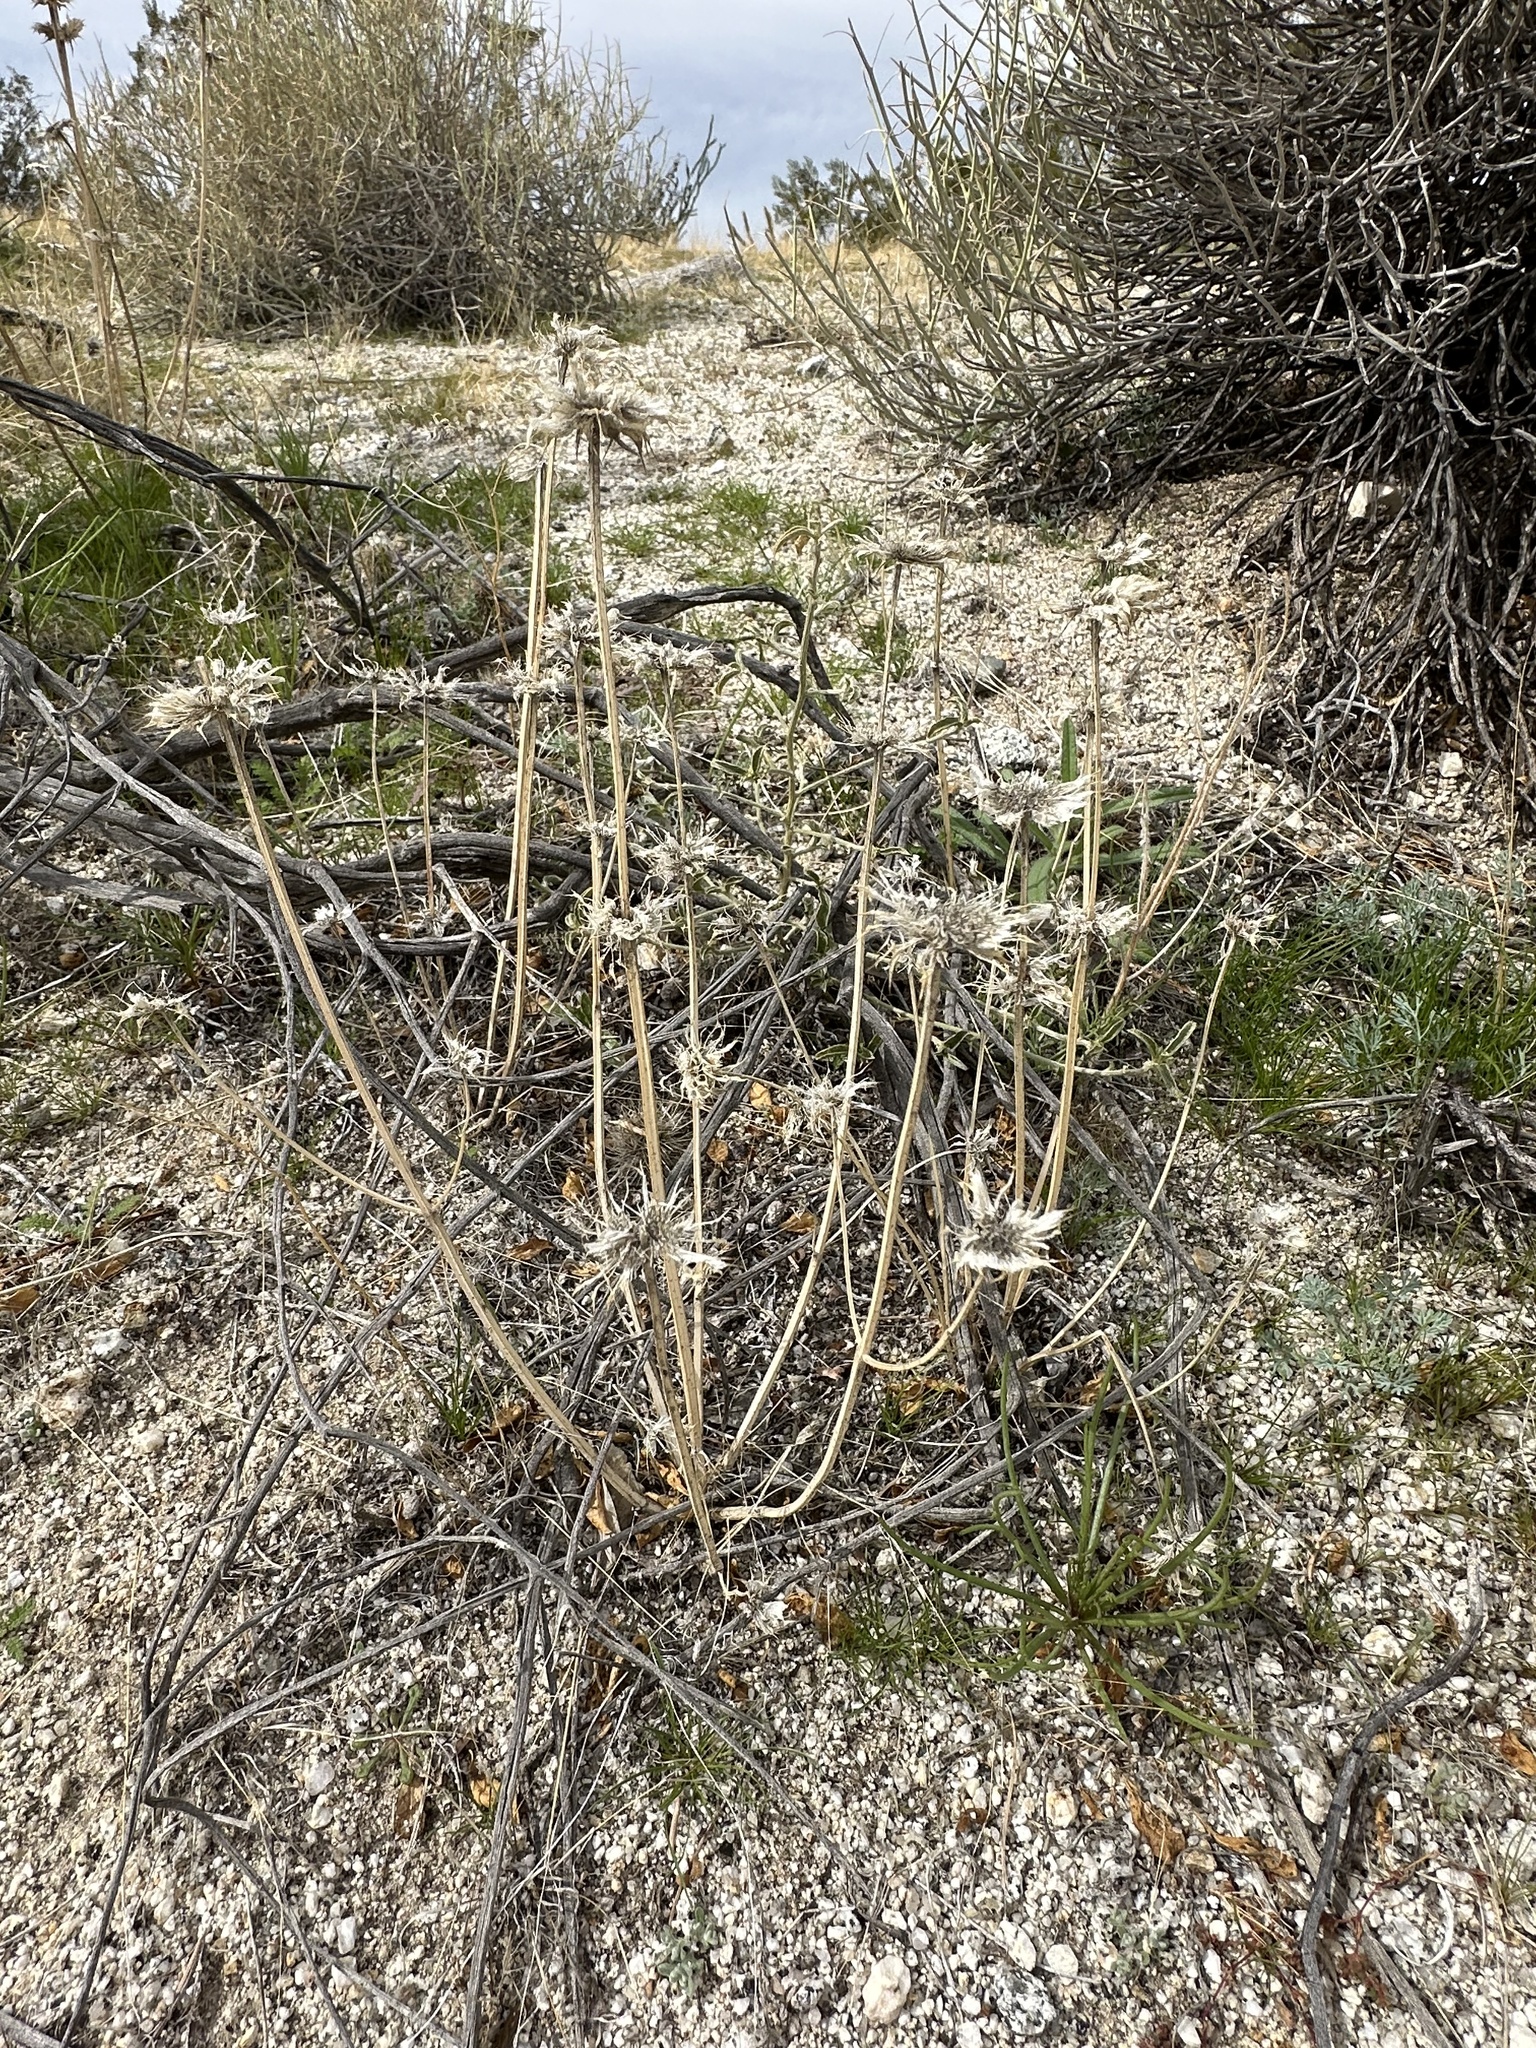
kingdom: Plantae
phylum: Tracheophyta
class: Magnoliopsida
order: Lamiales
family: Lamiaceae
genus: Salvia
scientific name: Salvia columbariae
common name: Chia
